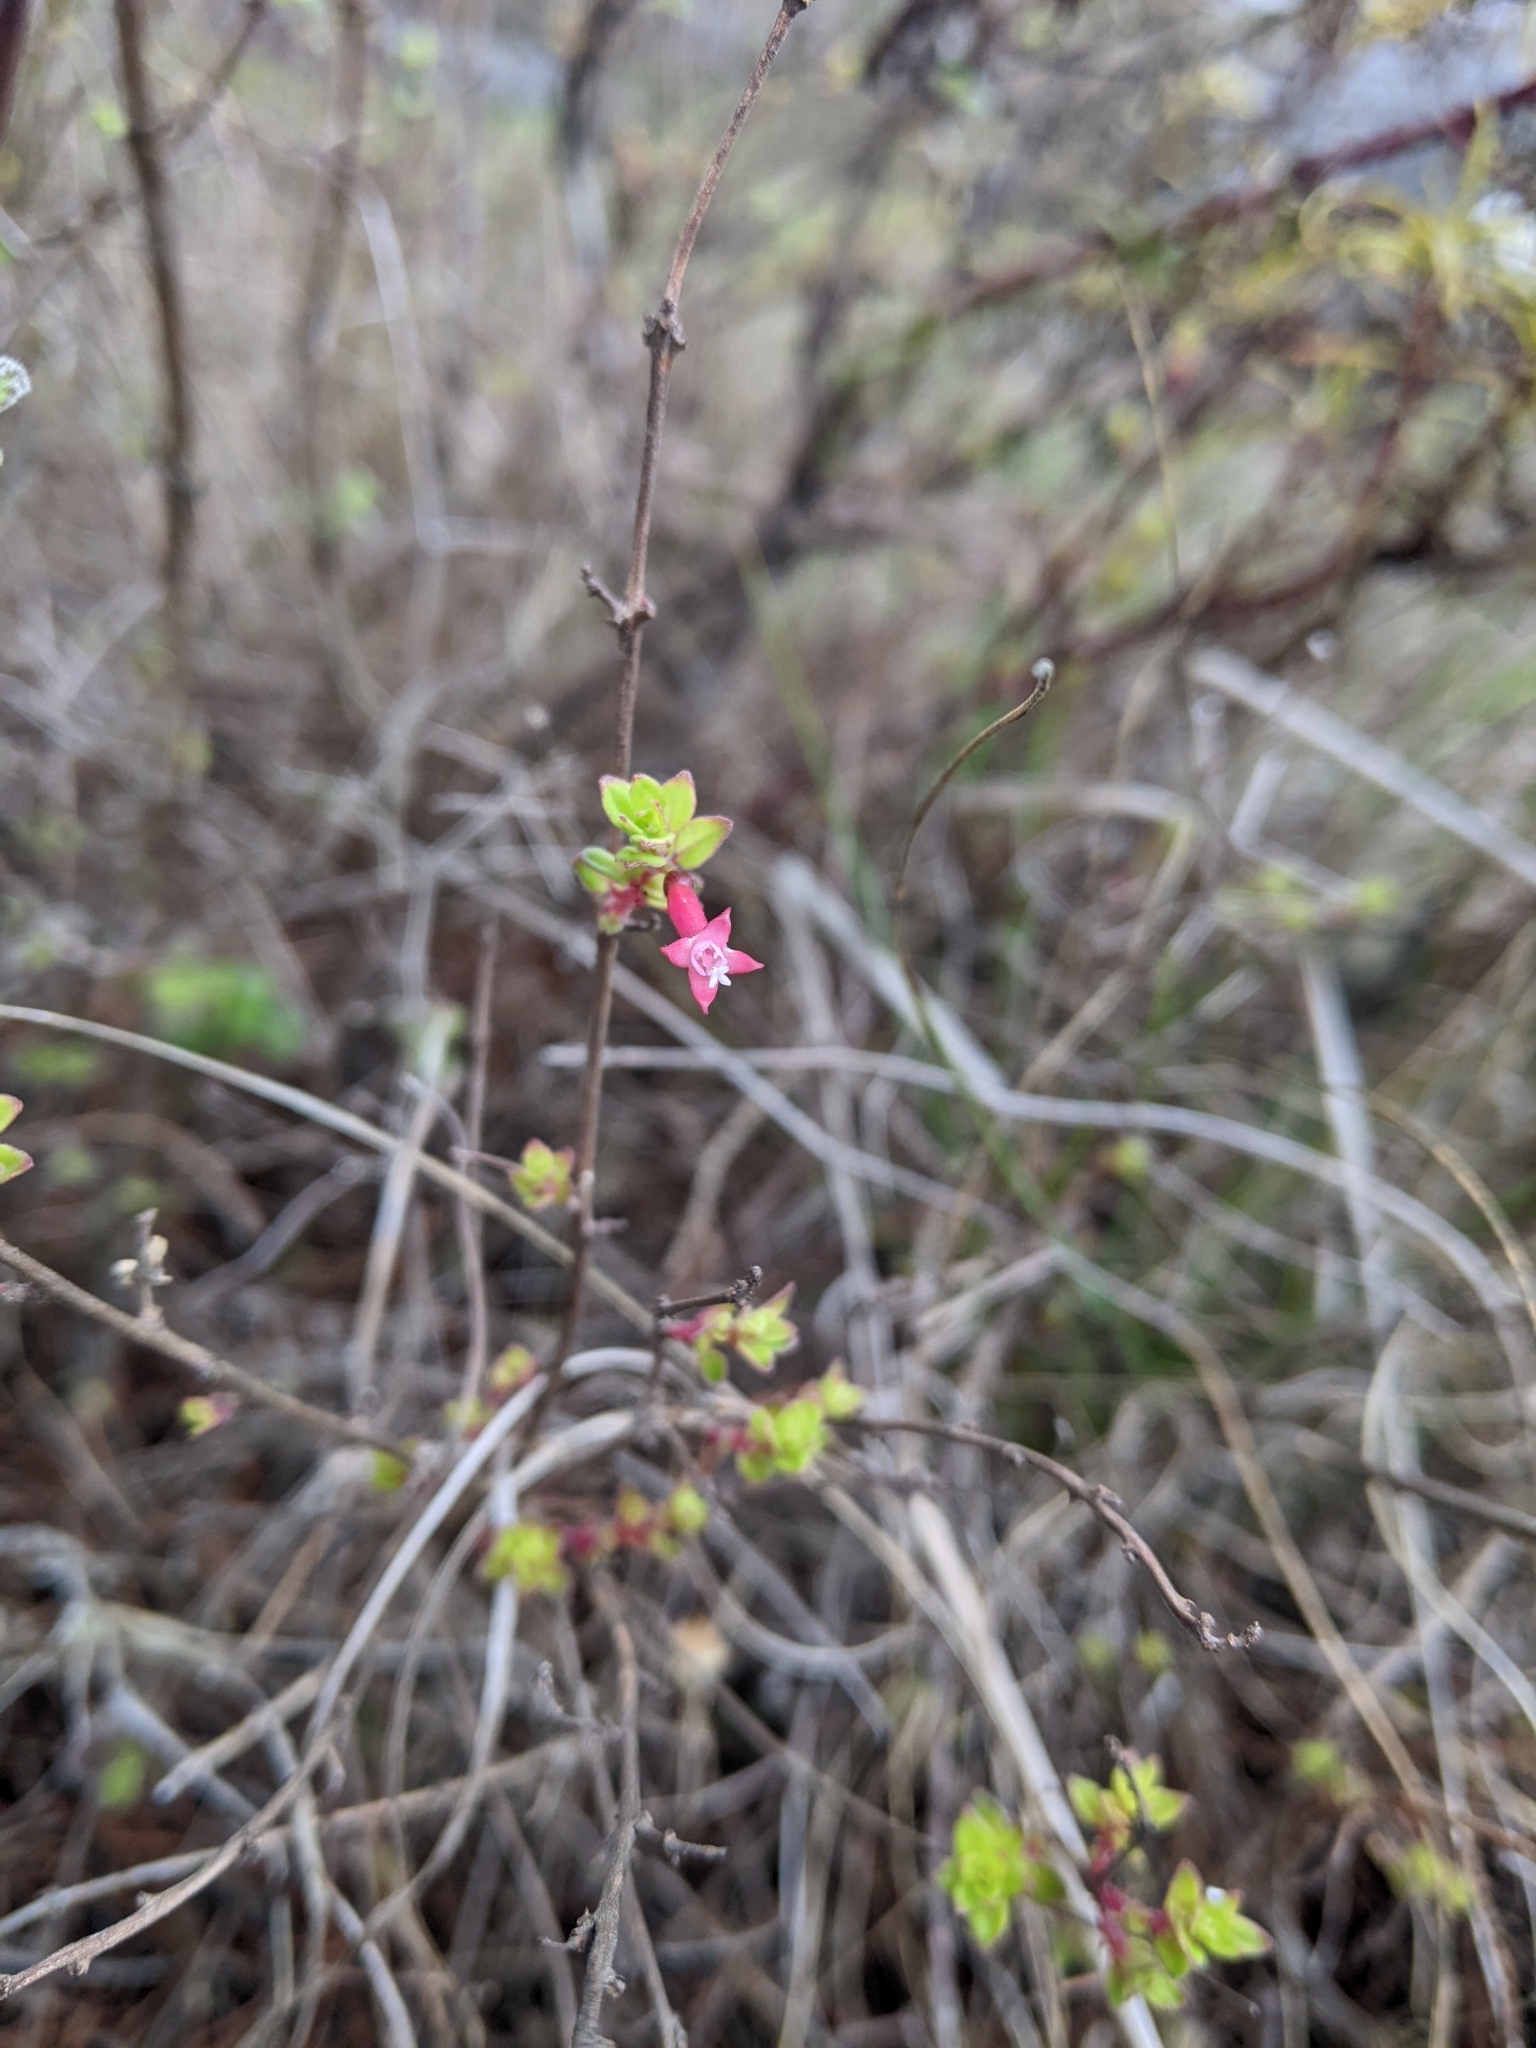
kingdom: Plantae
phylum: Tracheophyta
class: Magnoliopsida
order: Myrtales
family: Onagraceae
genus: Fuchsia
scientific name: Fuchsia microphylla
